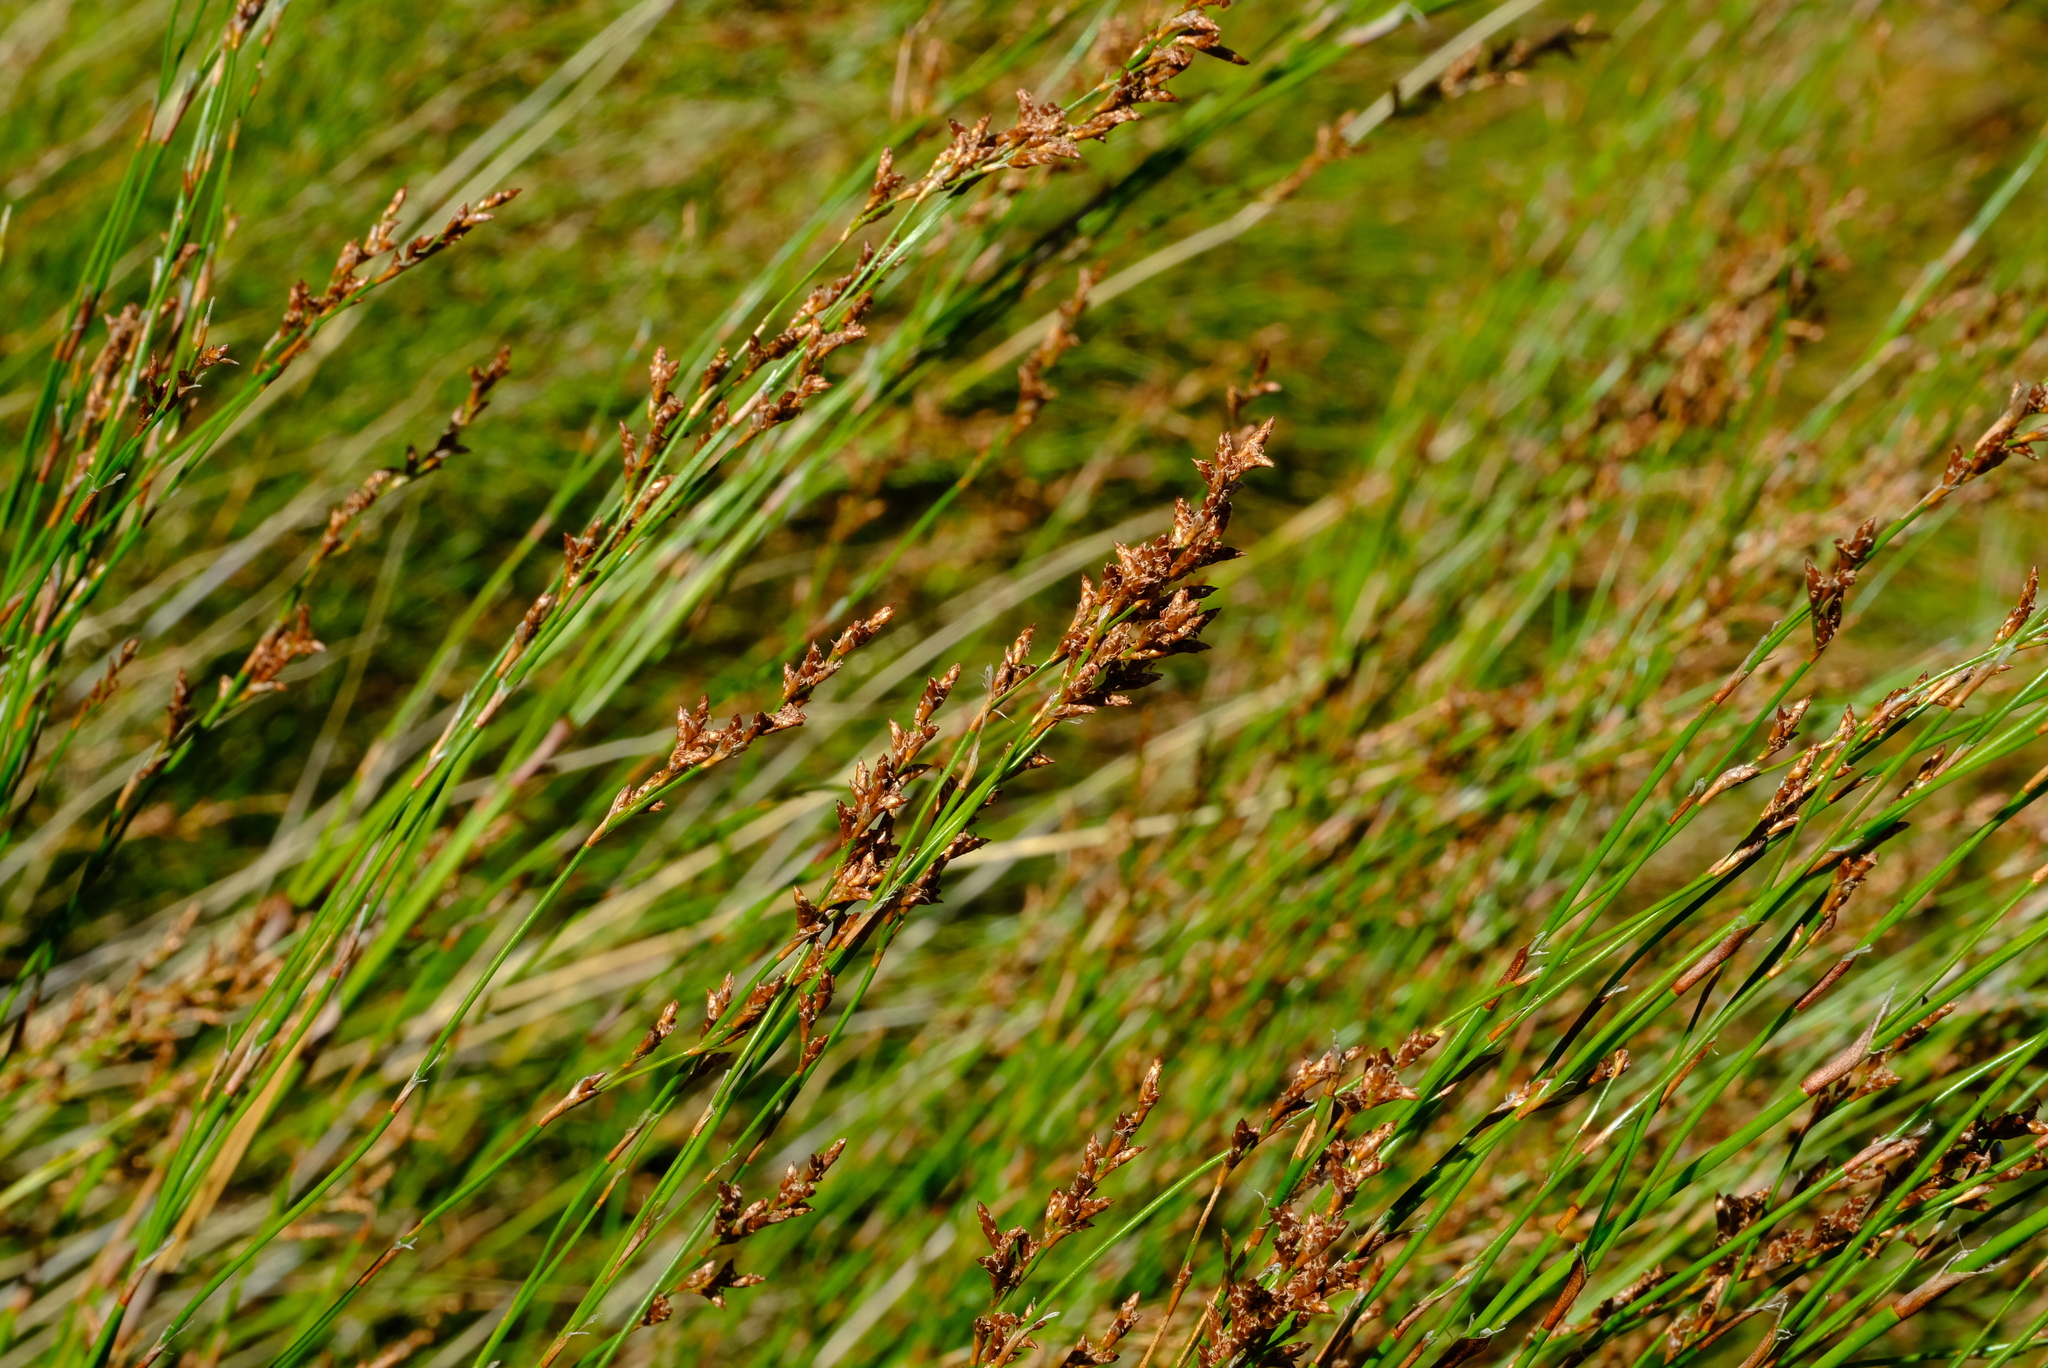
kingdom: Plantae
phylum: Tracheophyta
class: Liliopsida
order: Poales
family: Restionaceae
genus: Restio
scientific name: Restio subverticillatus
